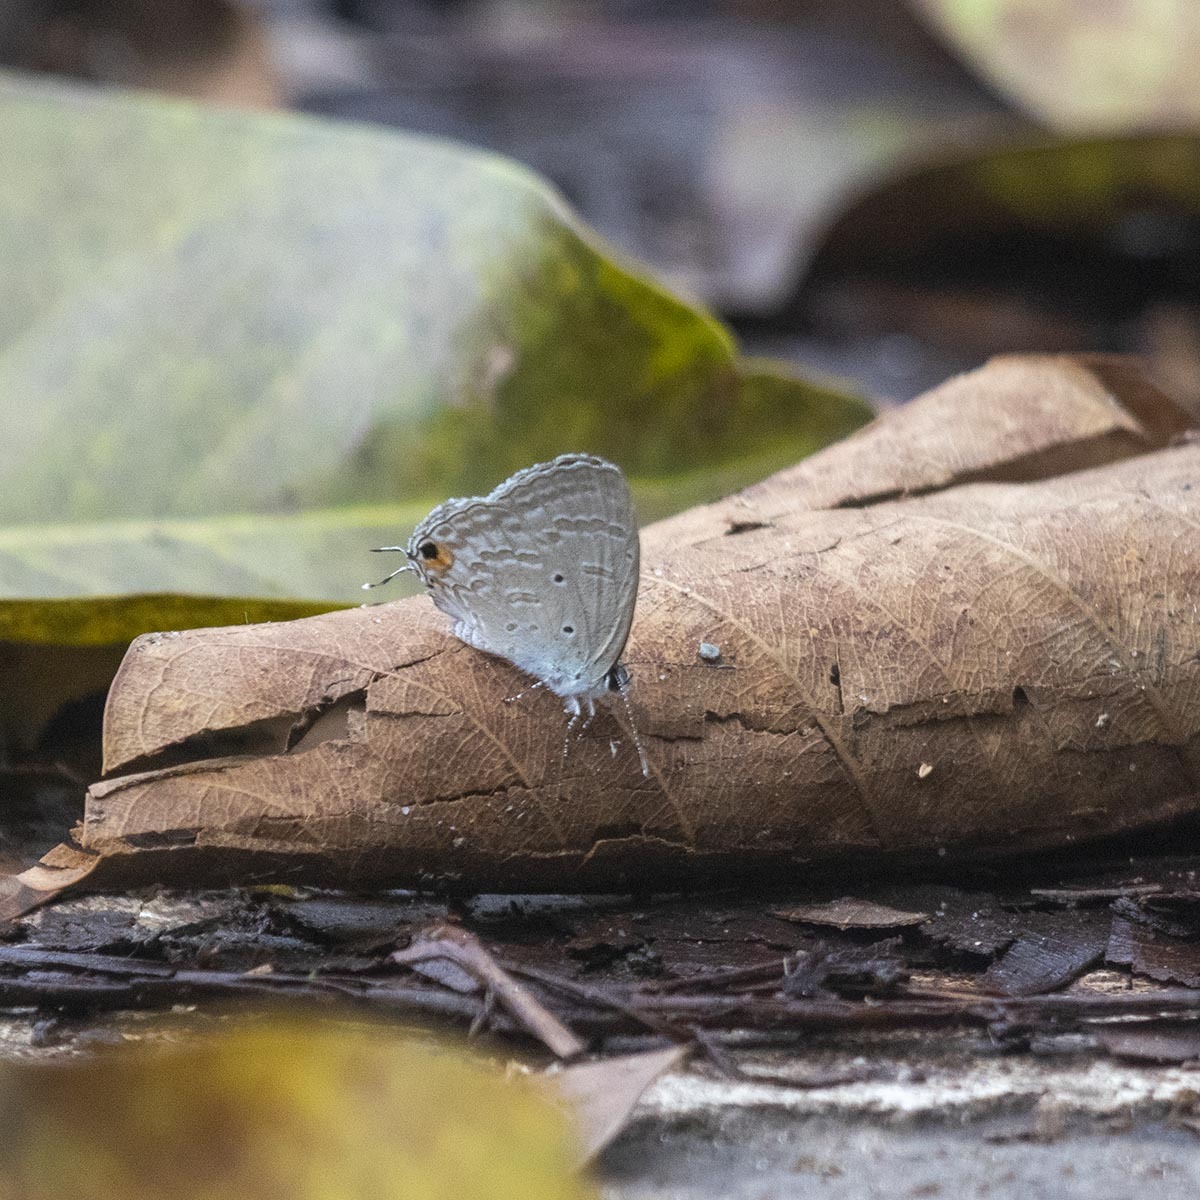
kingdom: Animalia
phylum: Arthropoda
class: Insecta
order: Lepidoptera
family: Lycaenidae
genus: Catochrysops
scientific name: Catochrysops strabo
